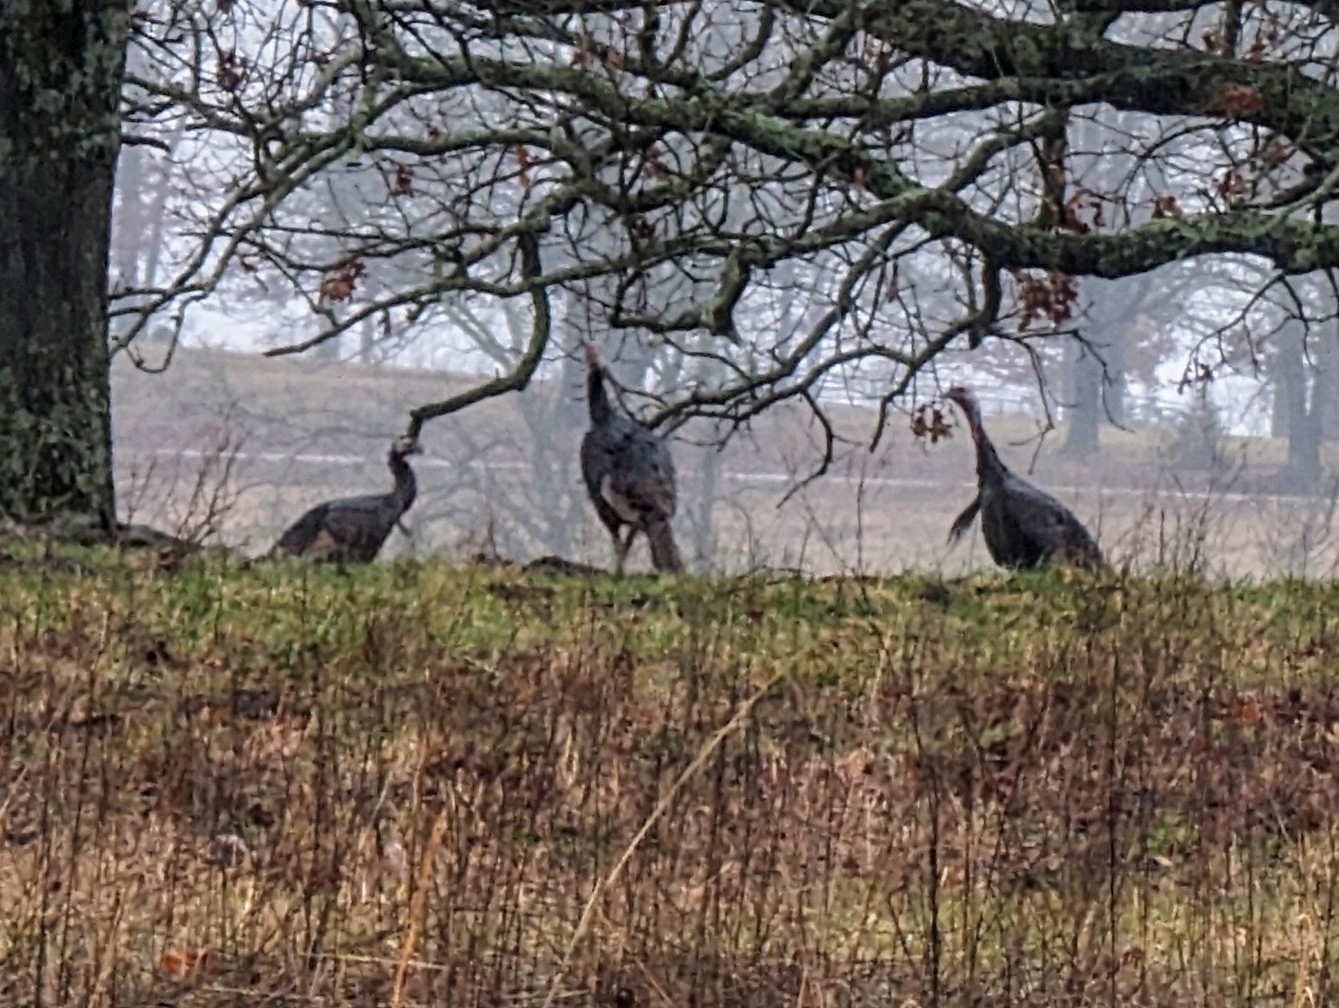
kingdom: Animalia
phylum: Chordata
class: Aves
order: Galliformes
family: Phasianidae
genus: Meleagris
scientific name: Meleagris gallopavo
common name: Wild turkey
